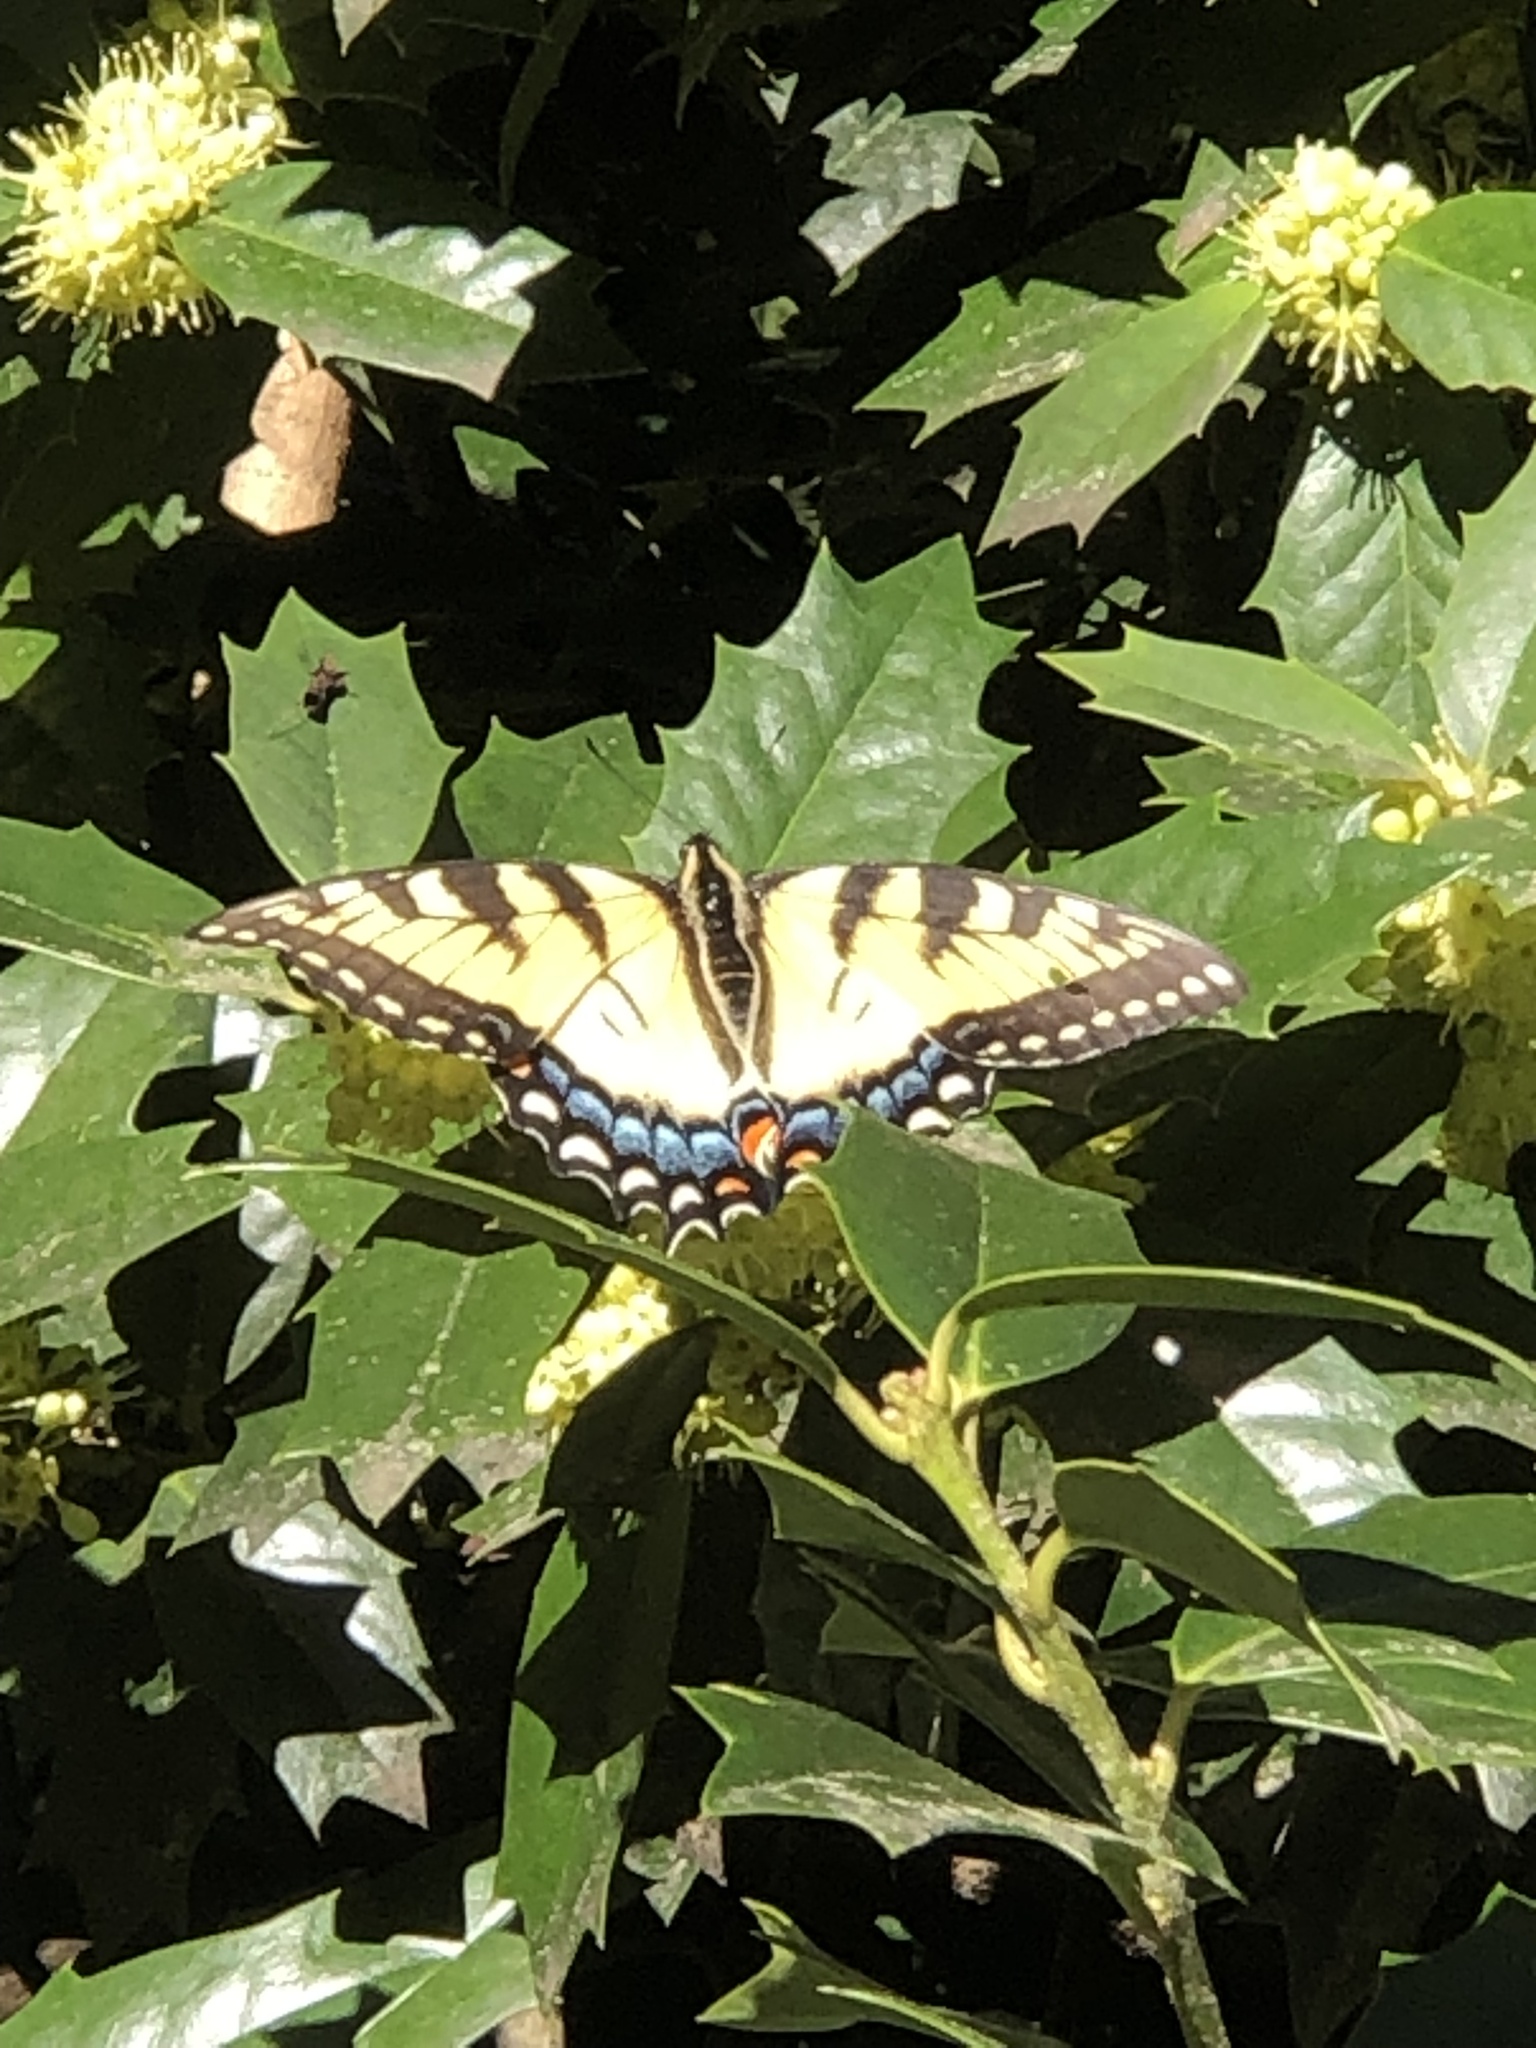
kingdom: Animalia
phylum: Arthropoda
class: Insecta
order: Lepidoptera
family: Papilionidae
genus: Papilio
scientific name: Papilio glaucus
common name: Tiger swallowtail
